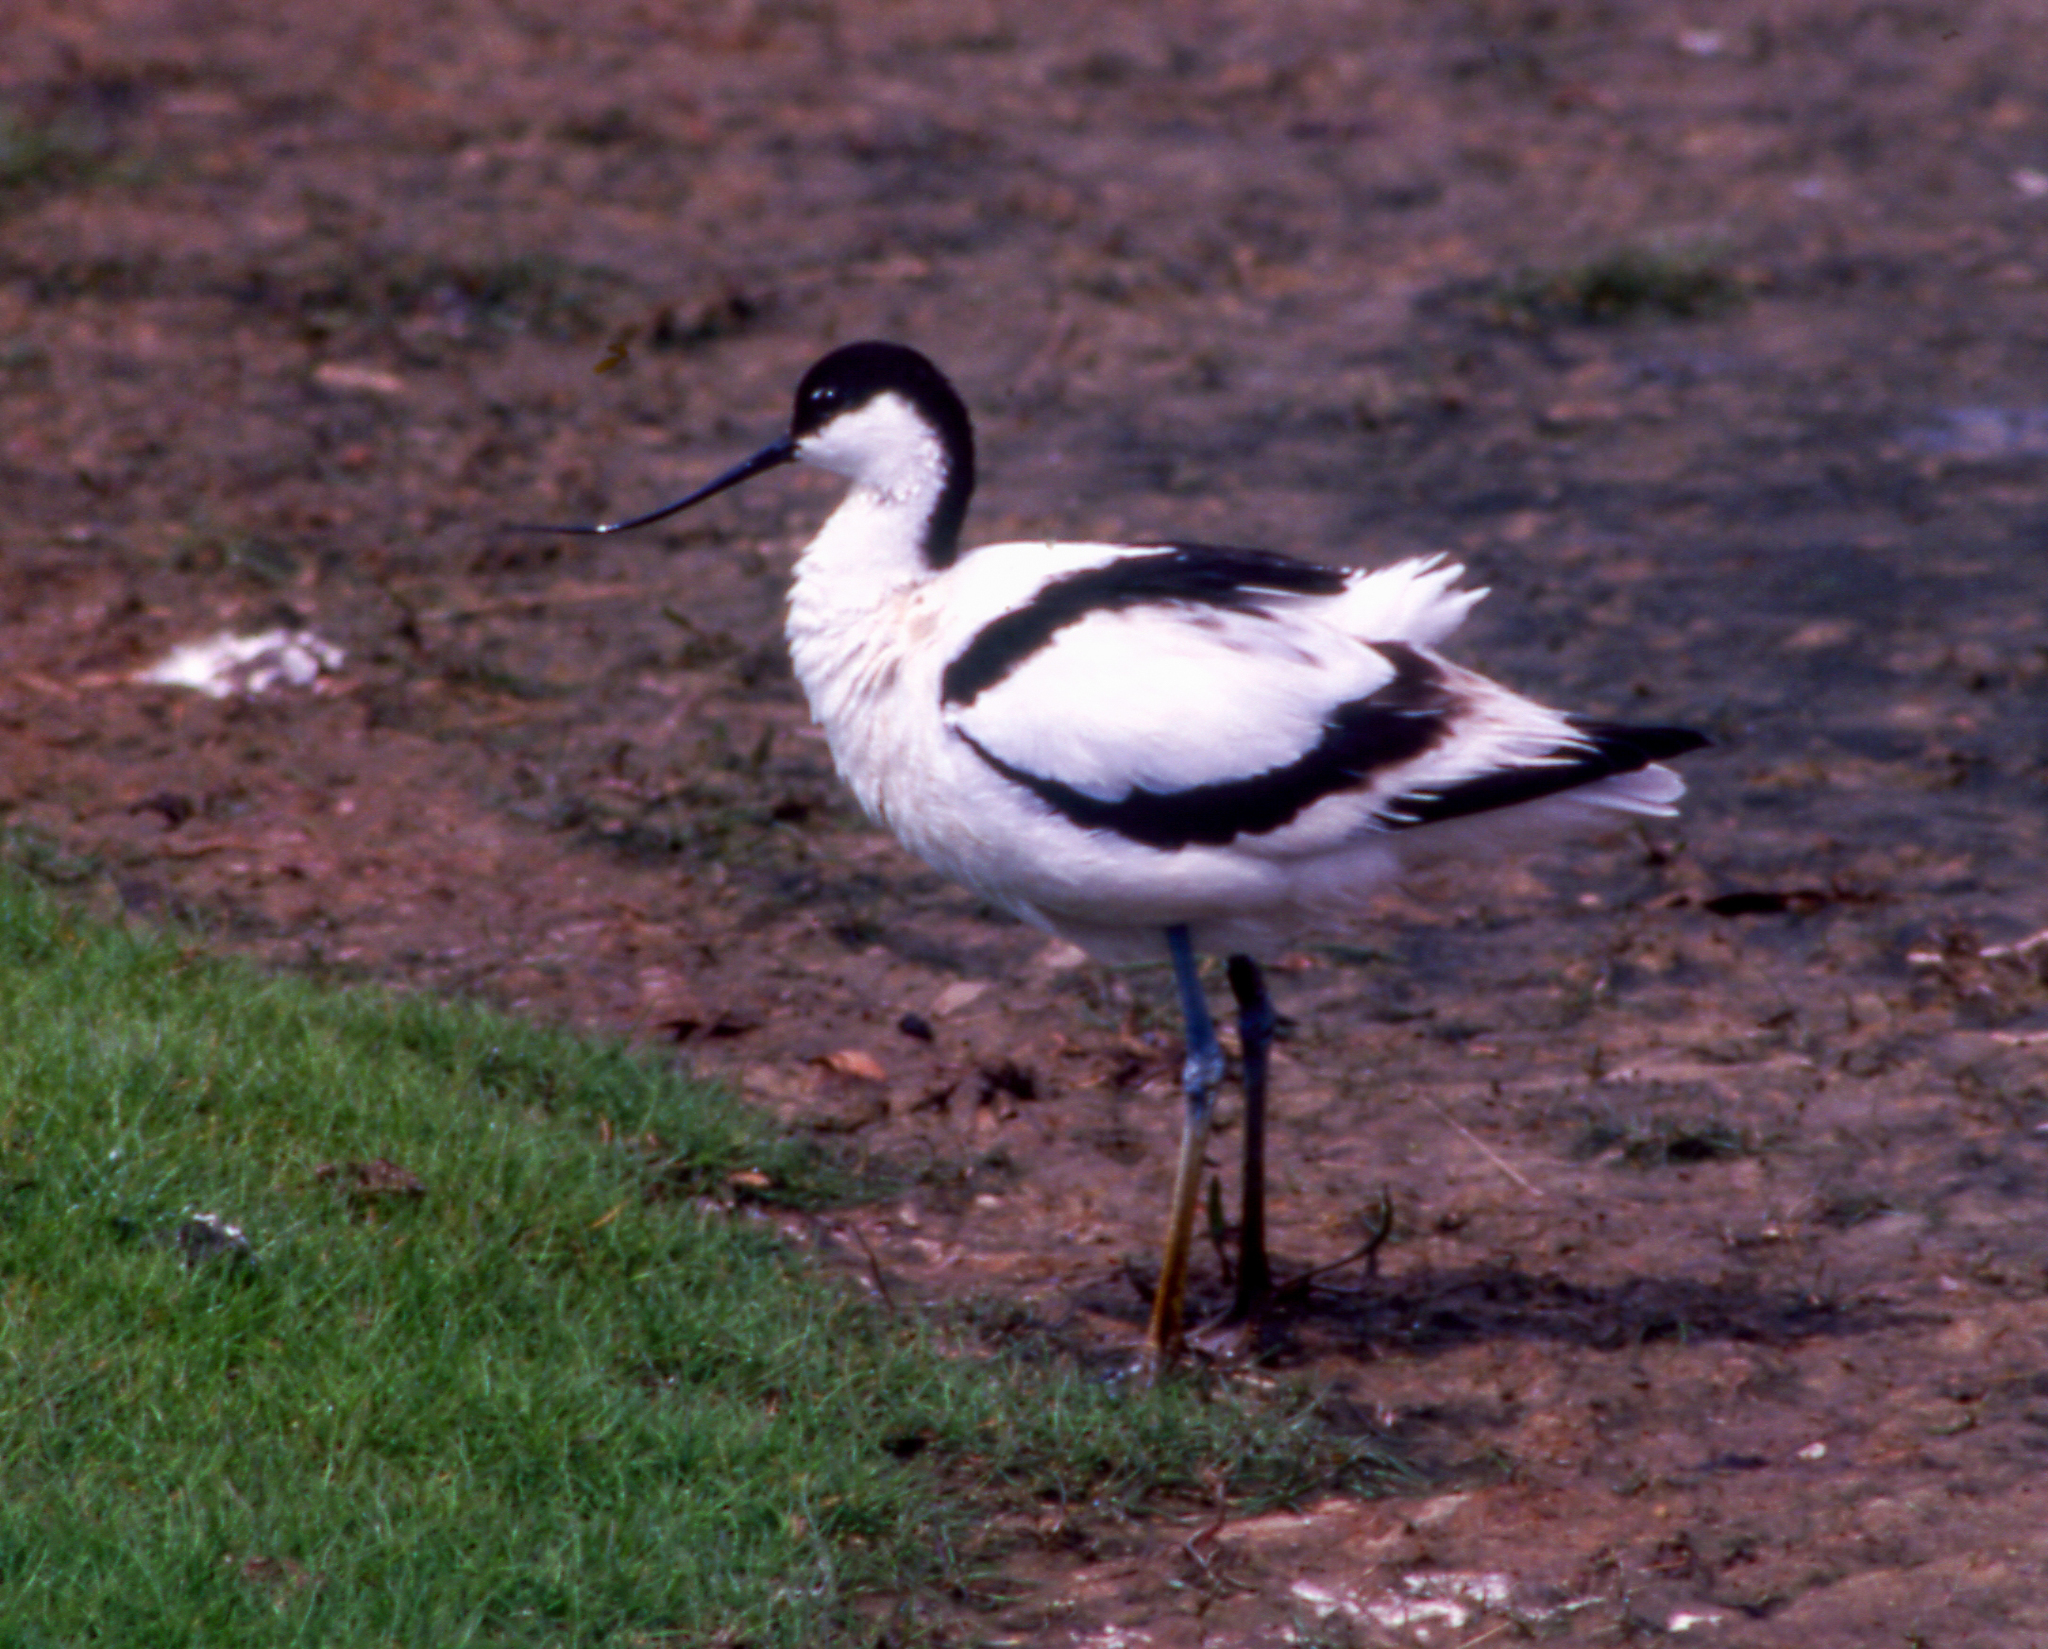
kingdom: Animalia
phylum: Chordata
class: Aves
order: Charadriiformes
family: Recurvirostridae
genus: Recurvirostra
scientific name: Recurvirostra avosetta
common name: Pied avocet
